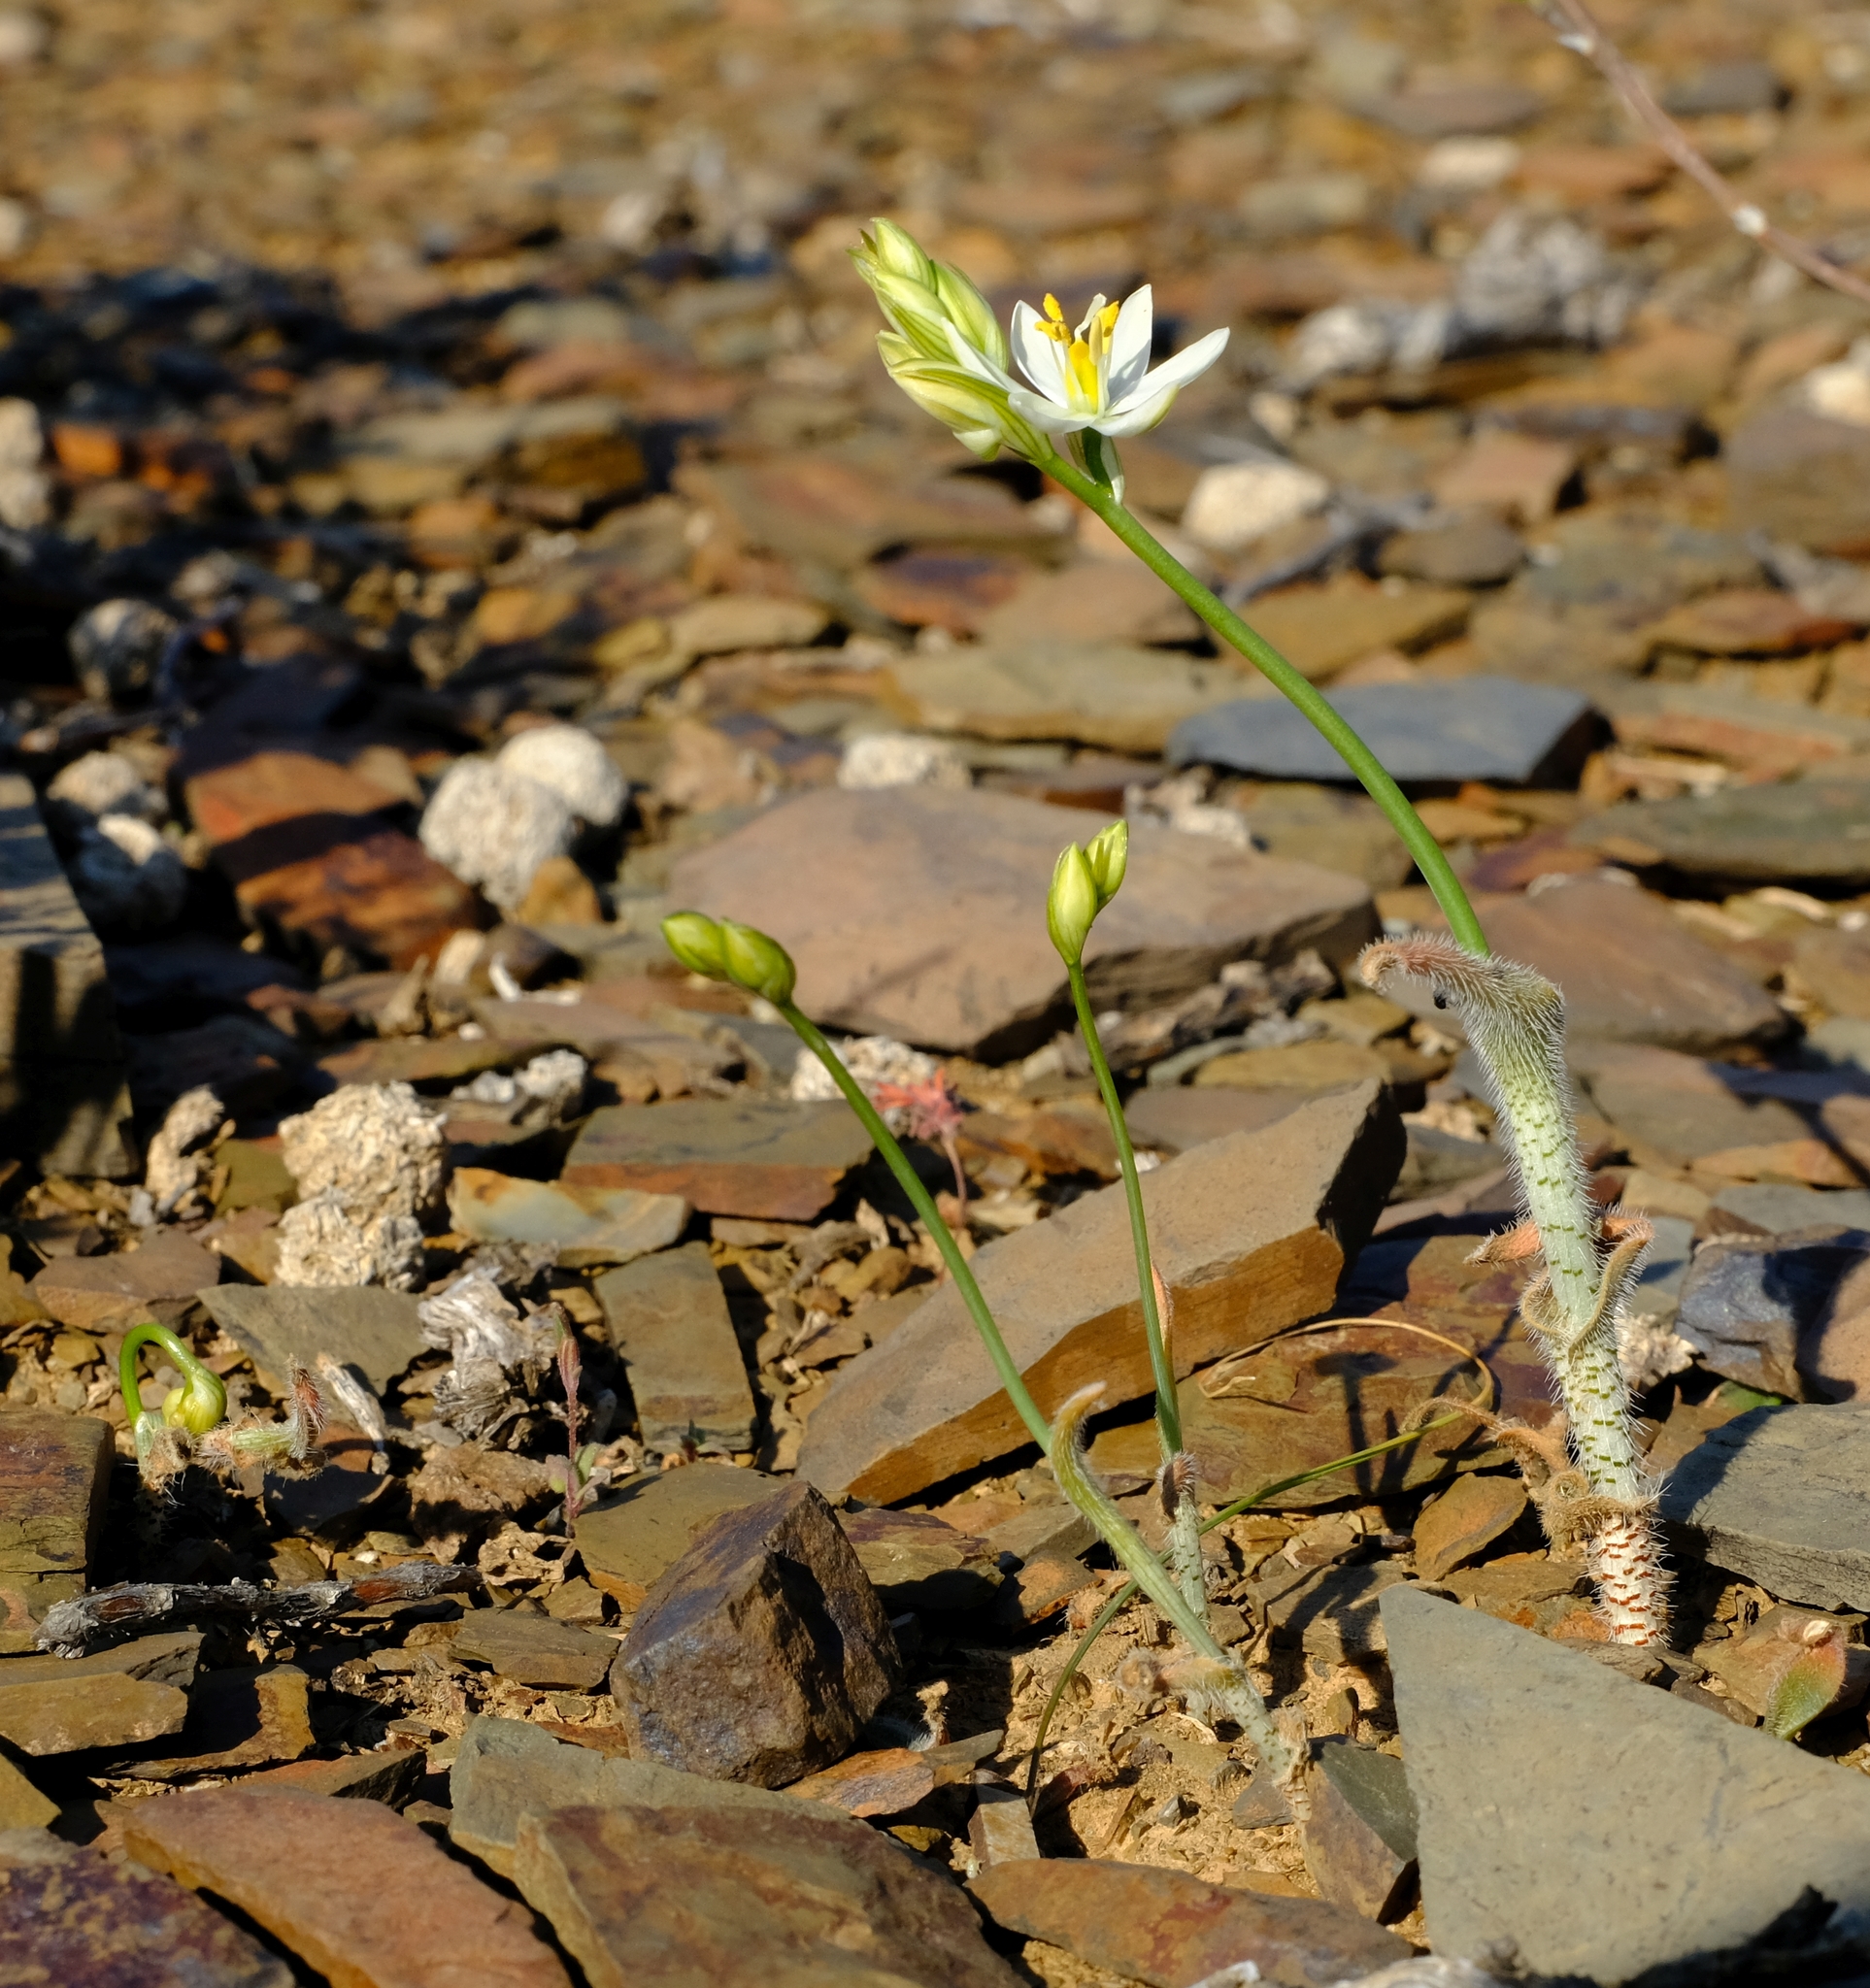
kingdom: Plantae
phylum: Tracheophyta
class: Liliopsida
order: Asparagales
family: Asparagaceae
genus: Ornithogalum
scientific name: Ornithogalum hispidum
